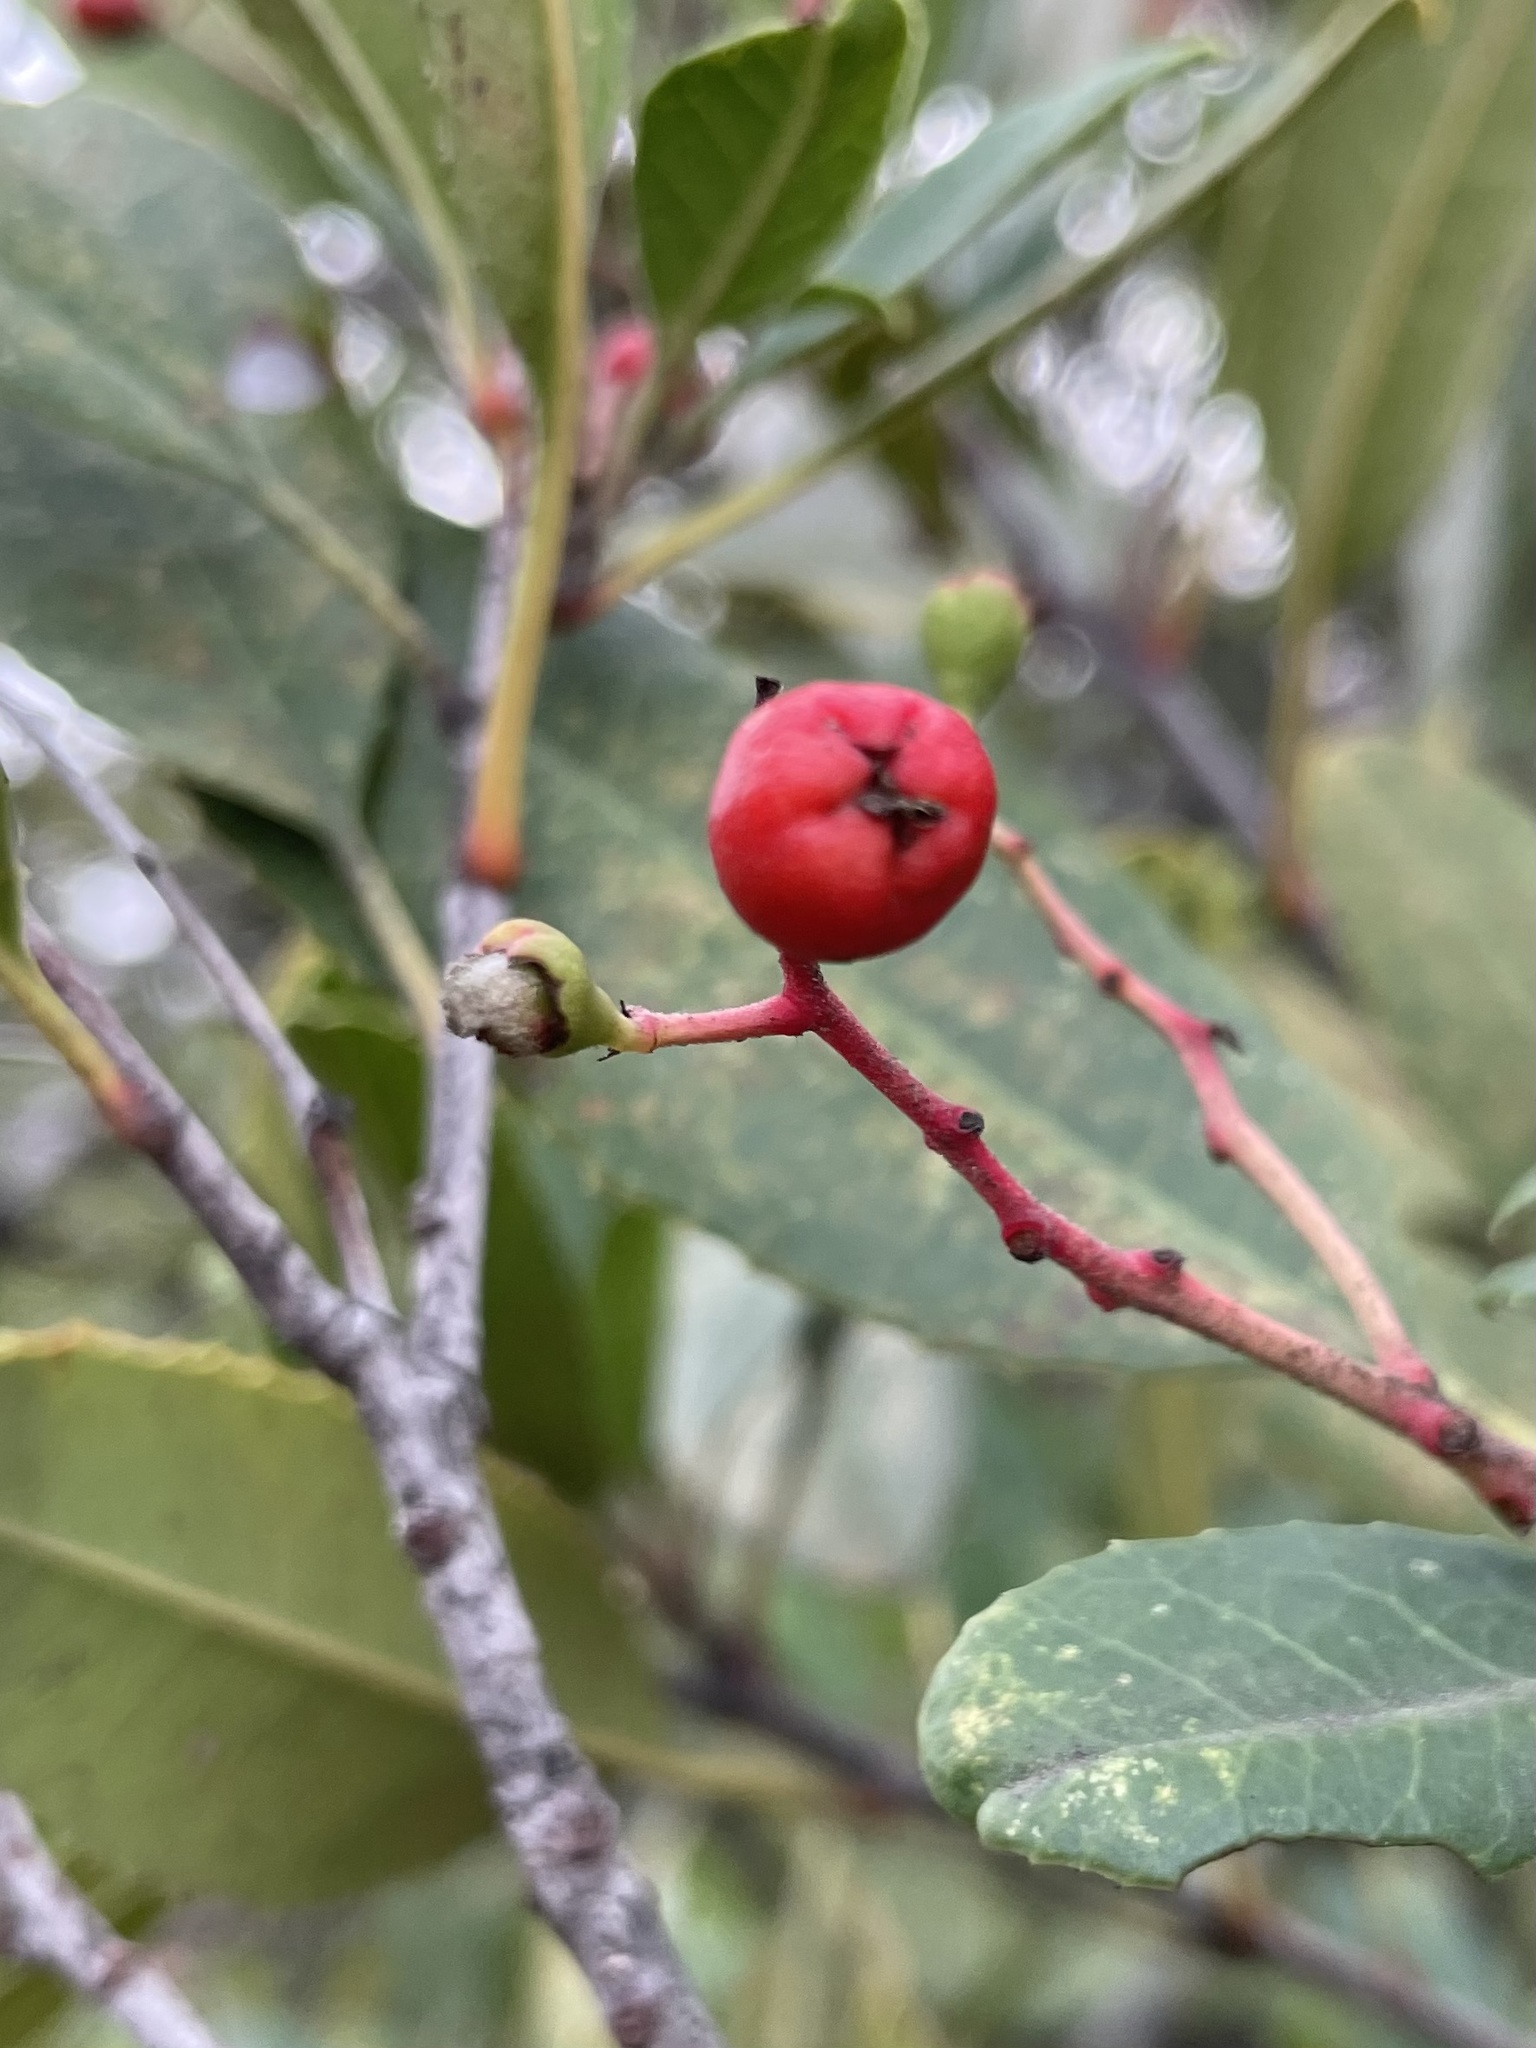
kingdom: Animalia
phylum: Arthropoda
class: Insecta
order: Diptera
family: Cecidomyiidae
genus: Asphondylia
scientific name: Asphondylia photiniae
